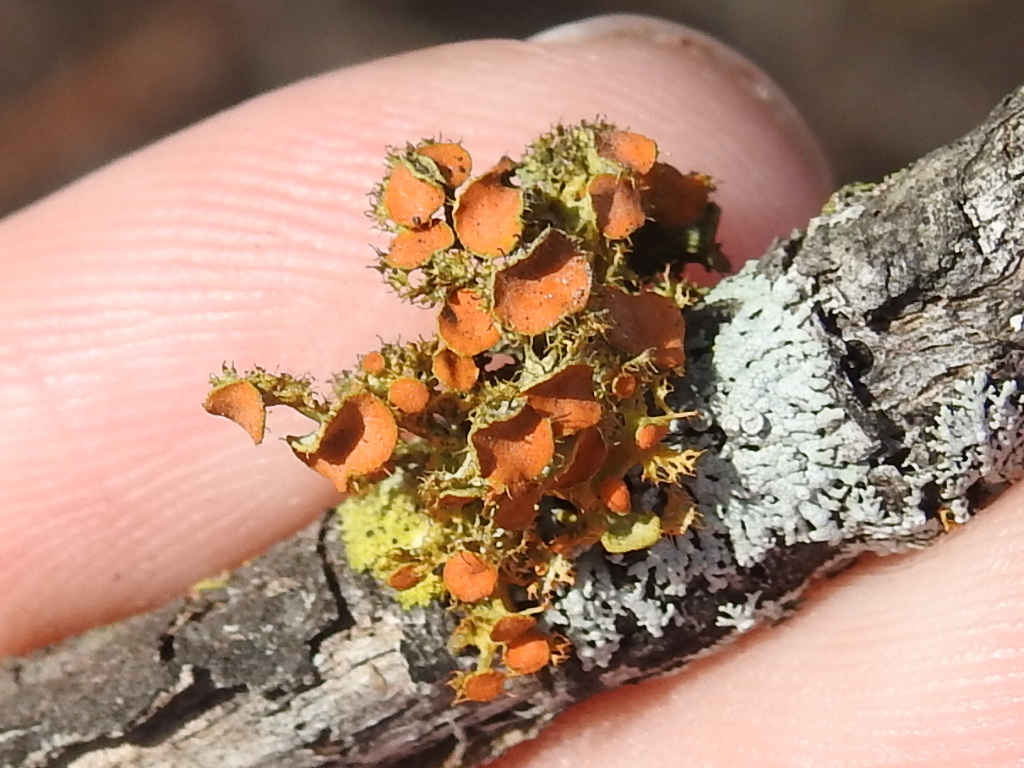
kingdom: Fungi
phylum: Ascomycota
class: Lecanoromycetes
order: Teloschistales
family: Teloschistaceae
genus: Niorma
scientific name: Niorma chrysophthalma
